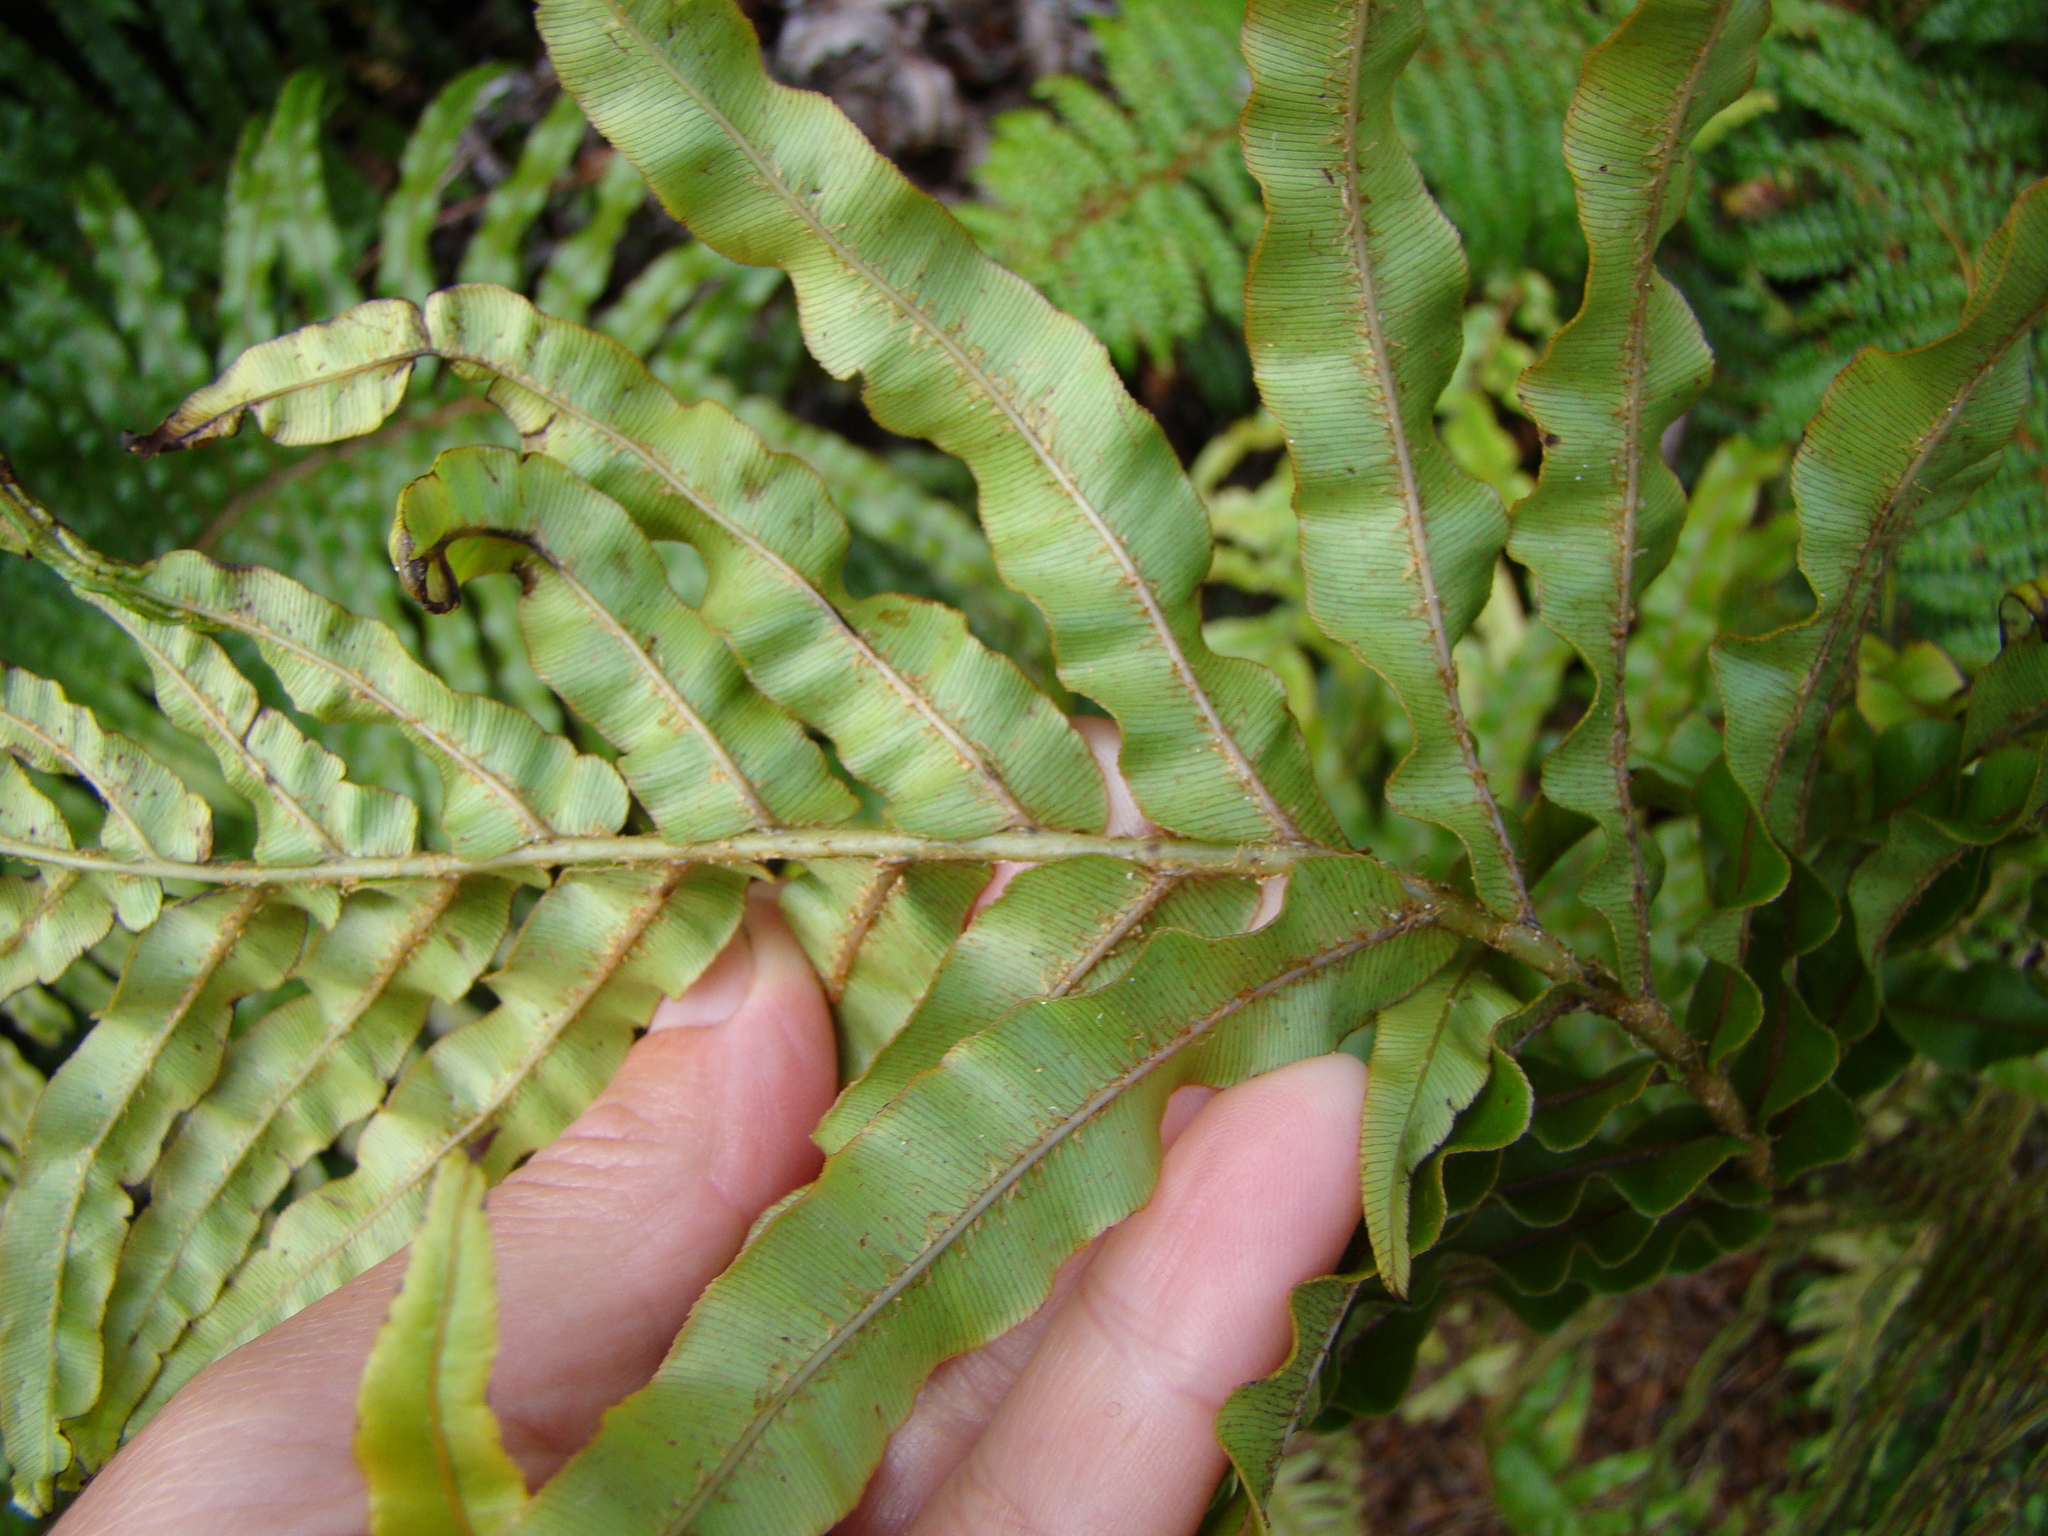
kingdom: Plantae
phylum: Tracheophyta
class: Polypodiopsida
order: Polypodiales
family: Blechnaceae
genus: Parablechnum
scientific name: Parablechnum novae-zelandiae
